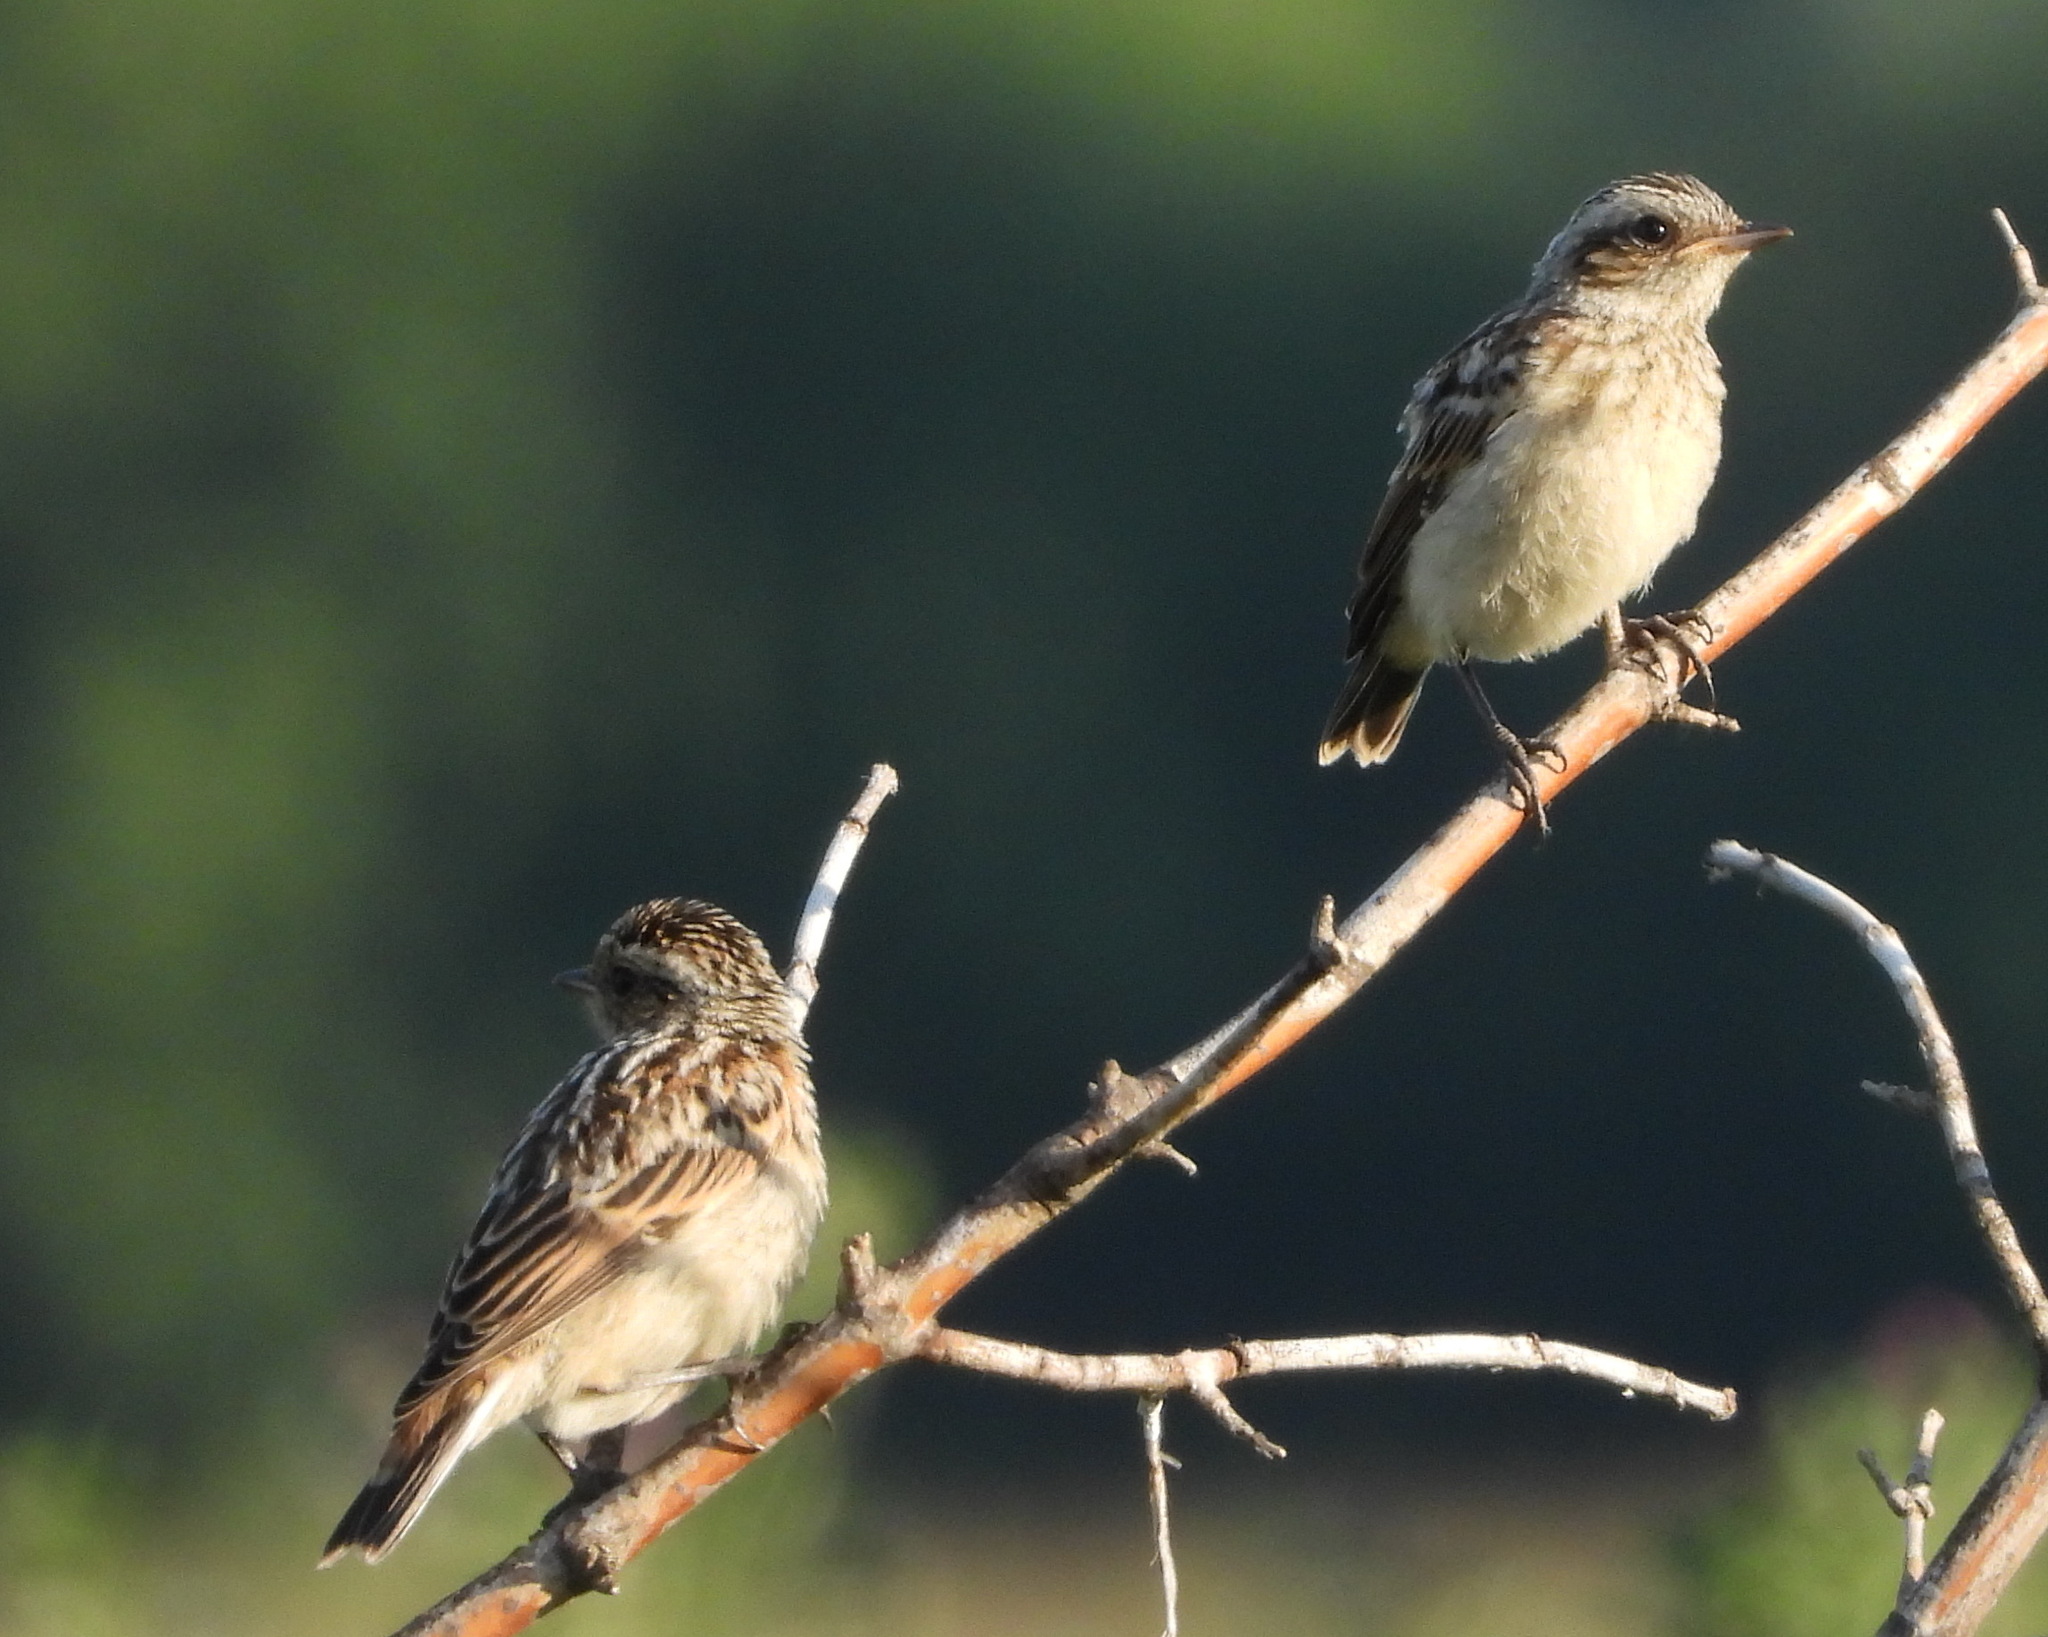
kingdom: Animalia
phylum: Chordata
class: Aves
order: Passeriformes
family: Muscicapidae
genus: Saxicola
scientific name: Saxicola rubetra
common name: Whinchat
